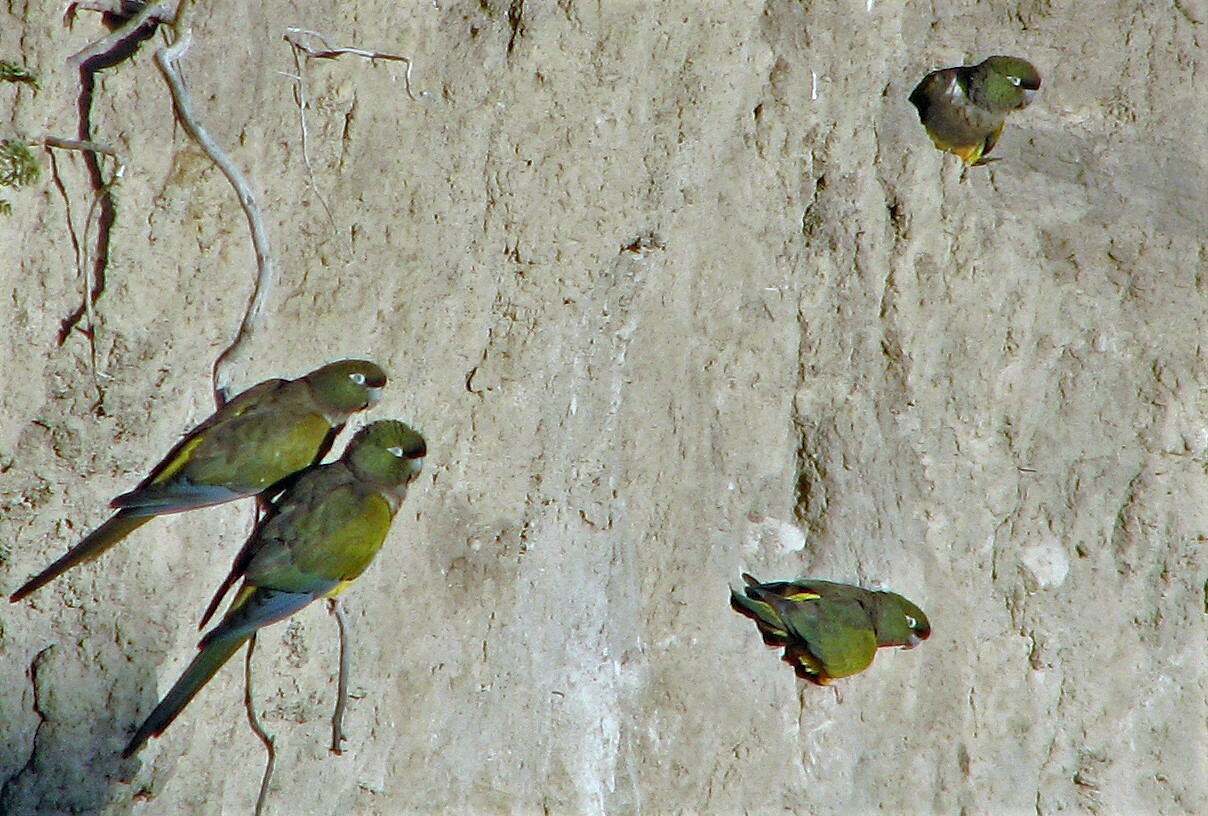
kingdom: Animalia
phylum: Chordata
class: Aves
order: Psittaciformes
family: Psittacidae
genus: Cyanoliseus
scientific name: Cyanoliseus patagonus
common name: Burrowing parrot
